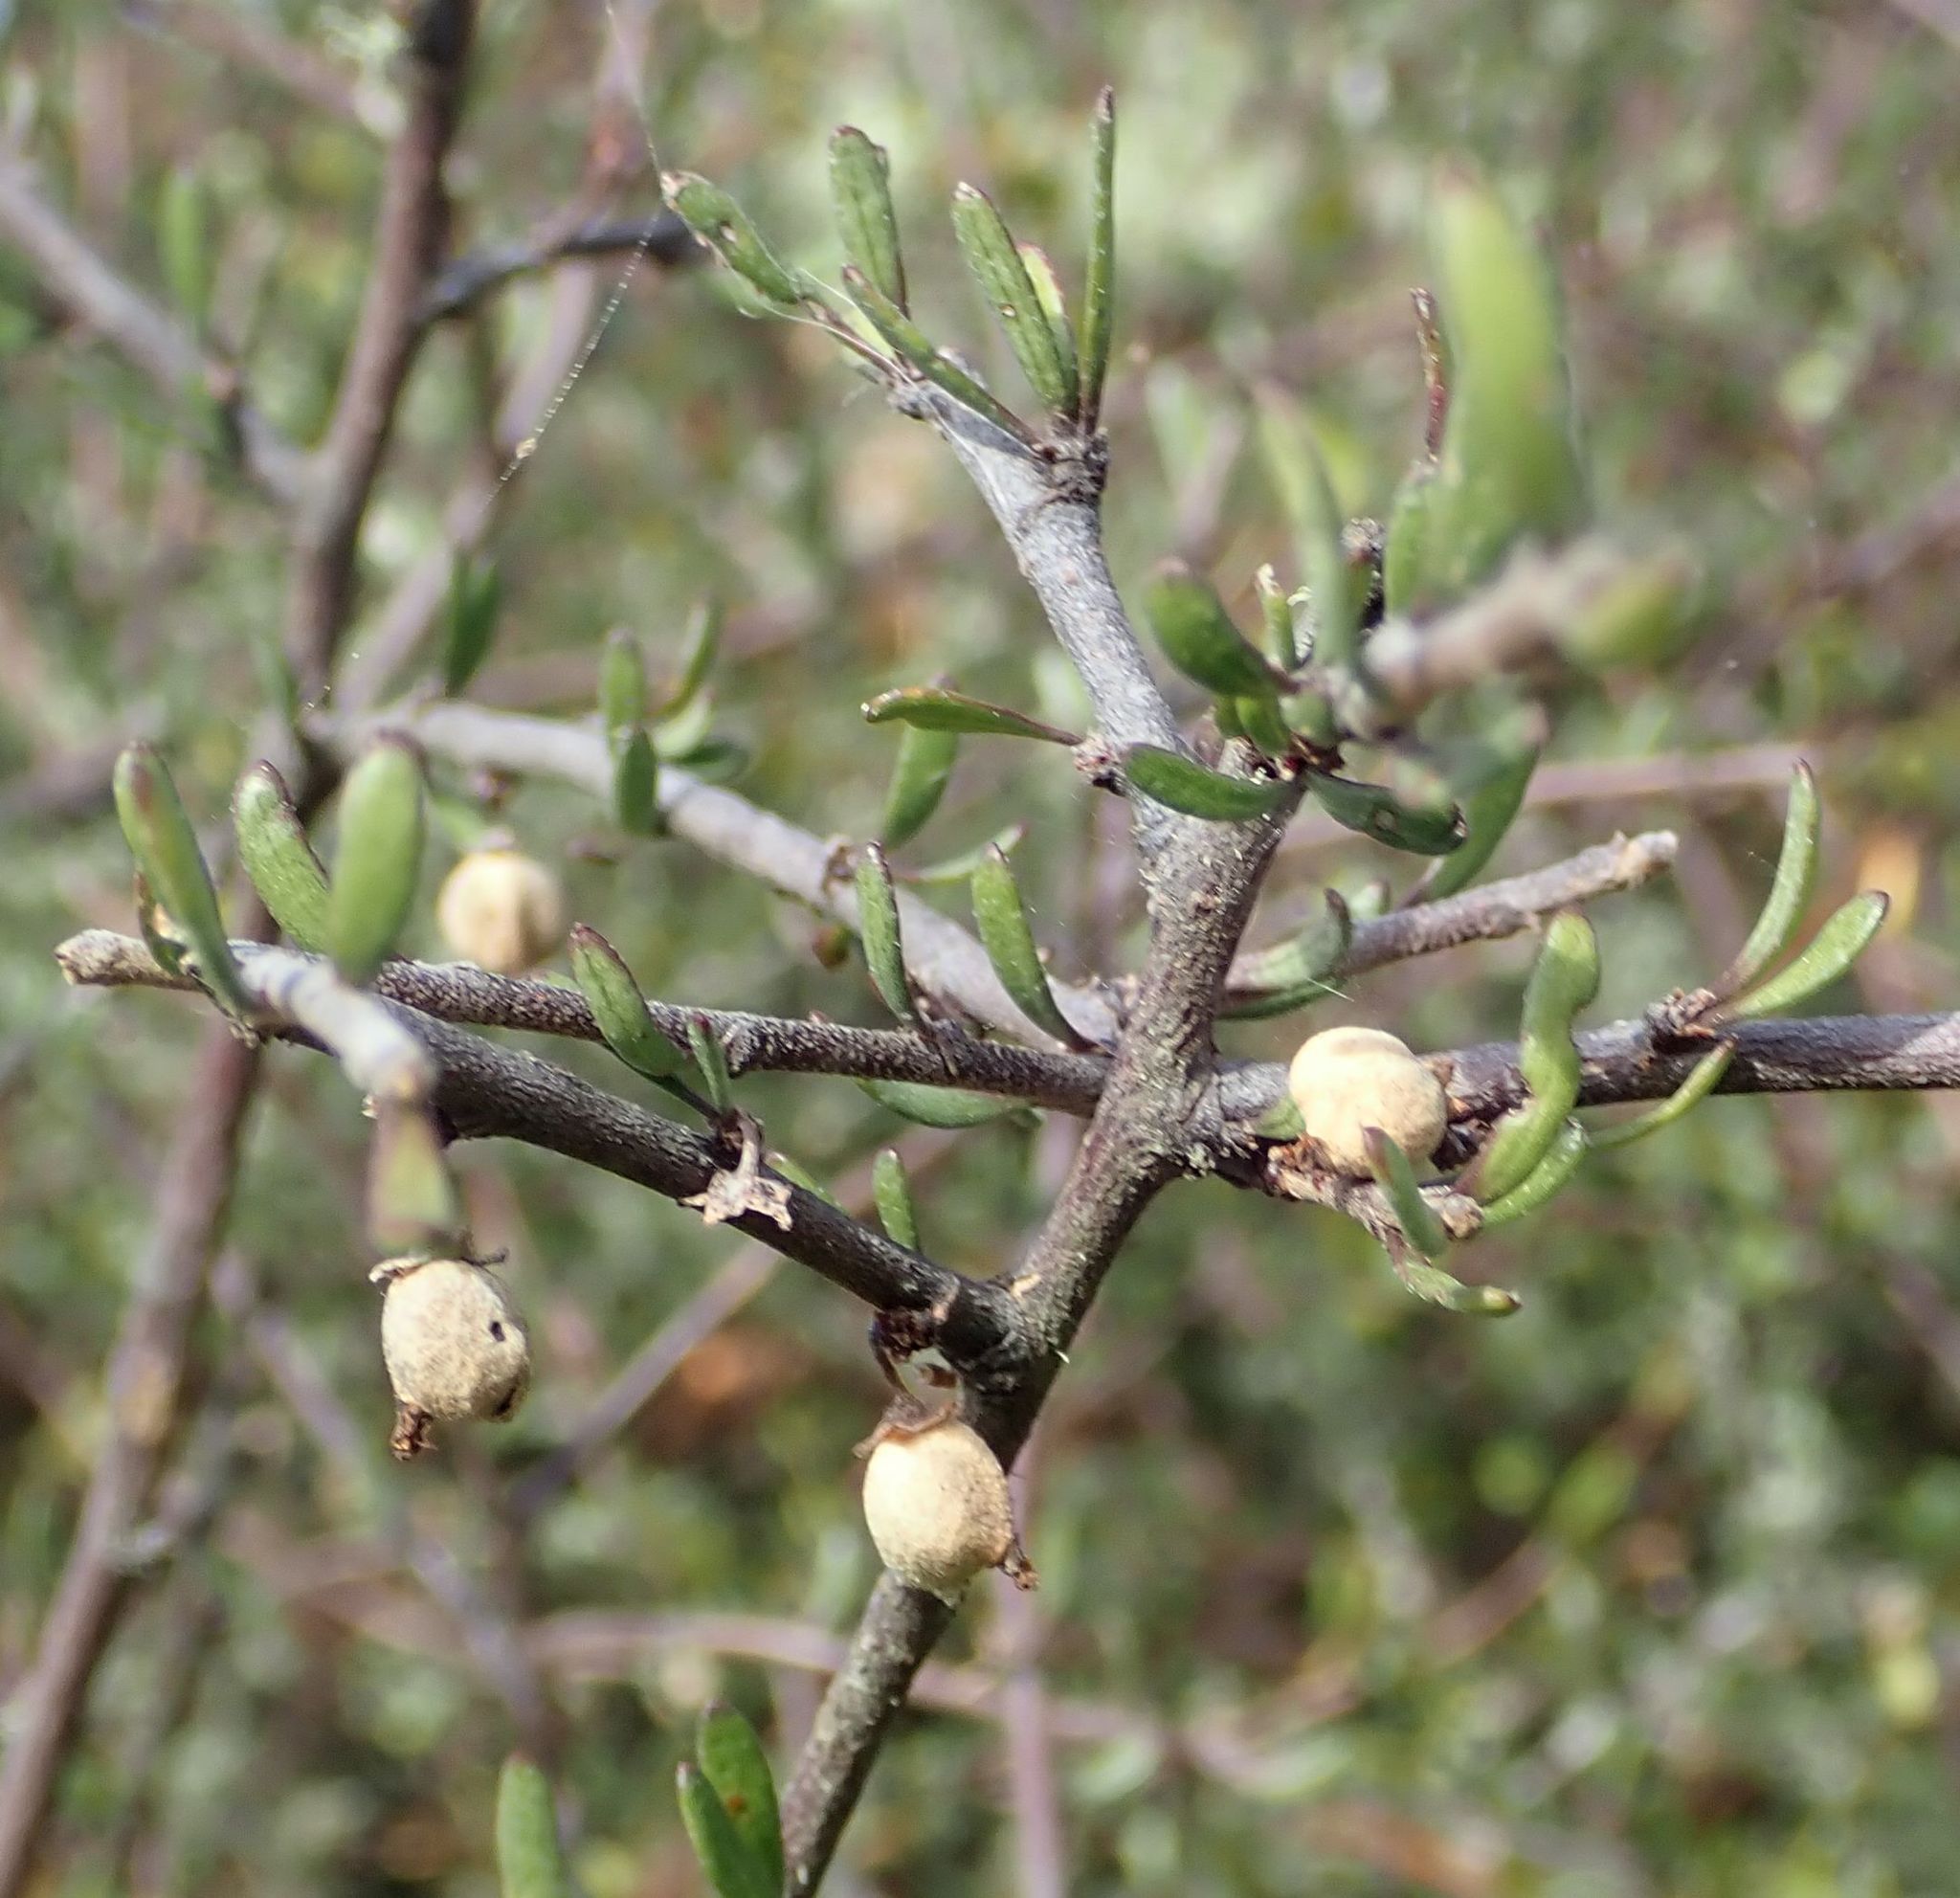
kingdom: Plantae
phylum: Tracheophyta
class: Magnoliopsida
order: Malvales
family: Malvaceae
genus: Plagianthus
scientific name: Plagianthus divaricatus
